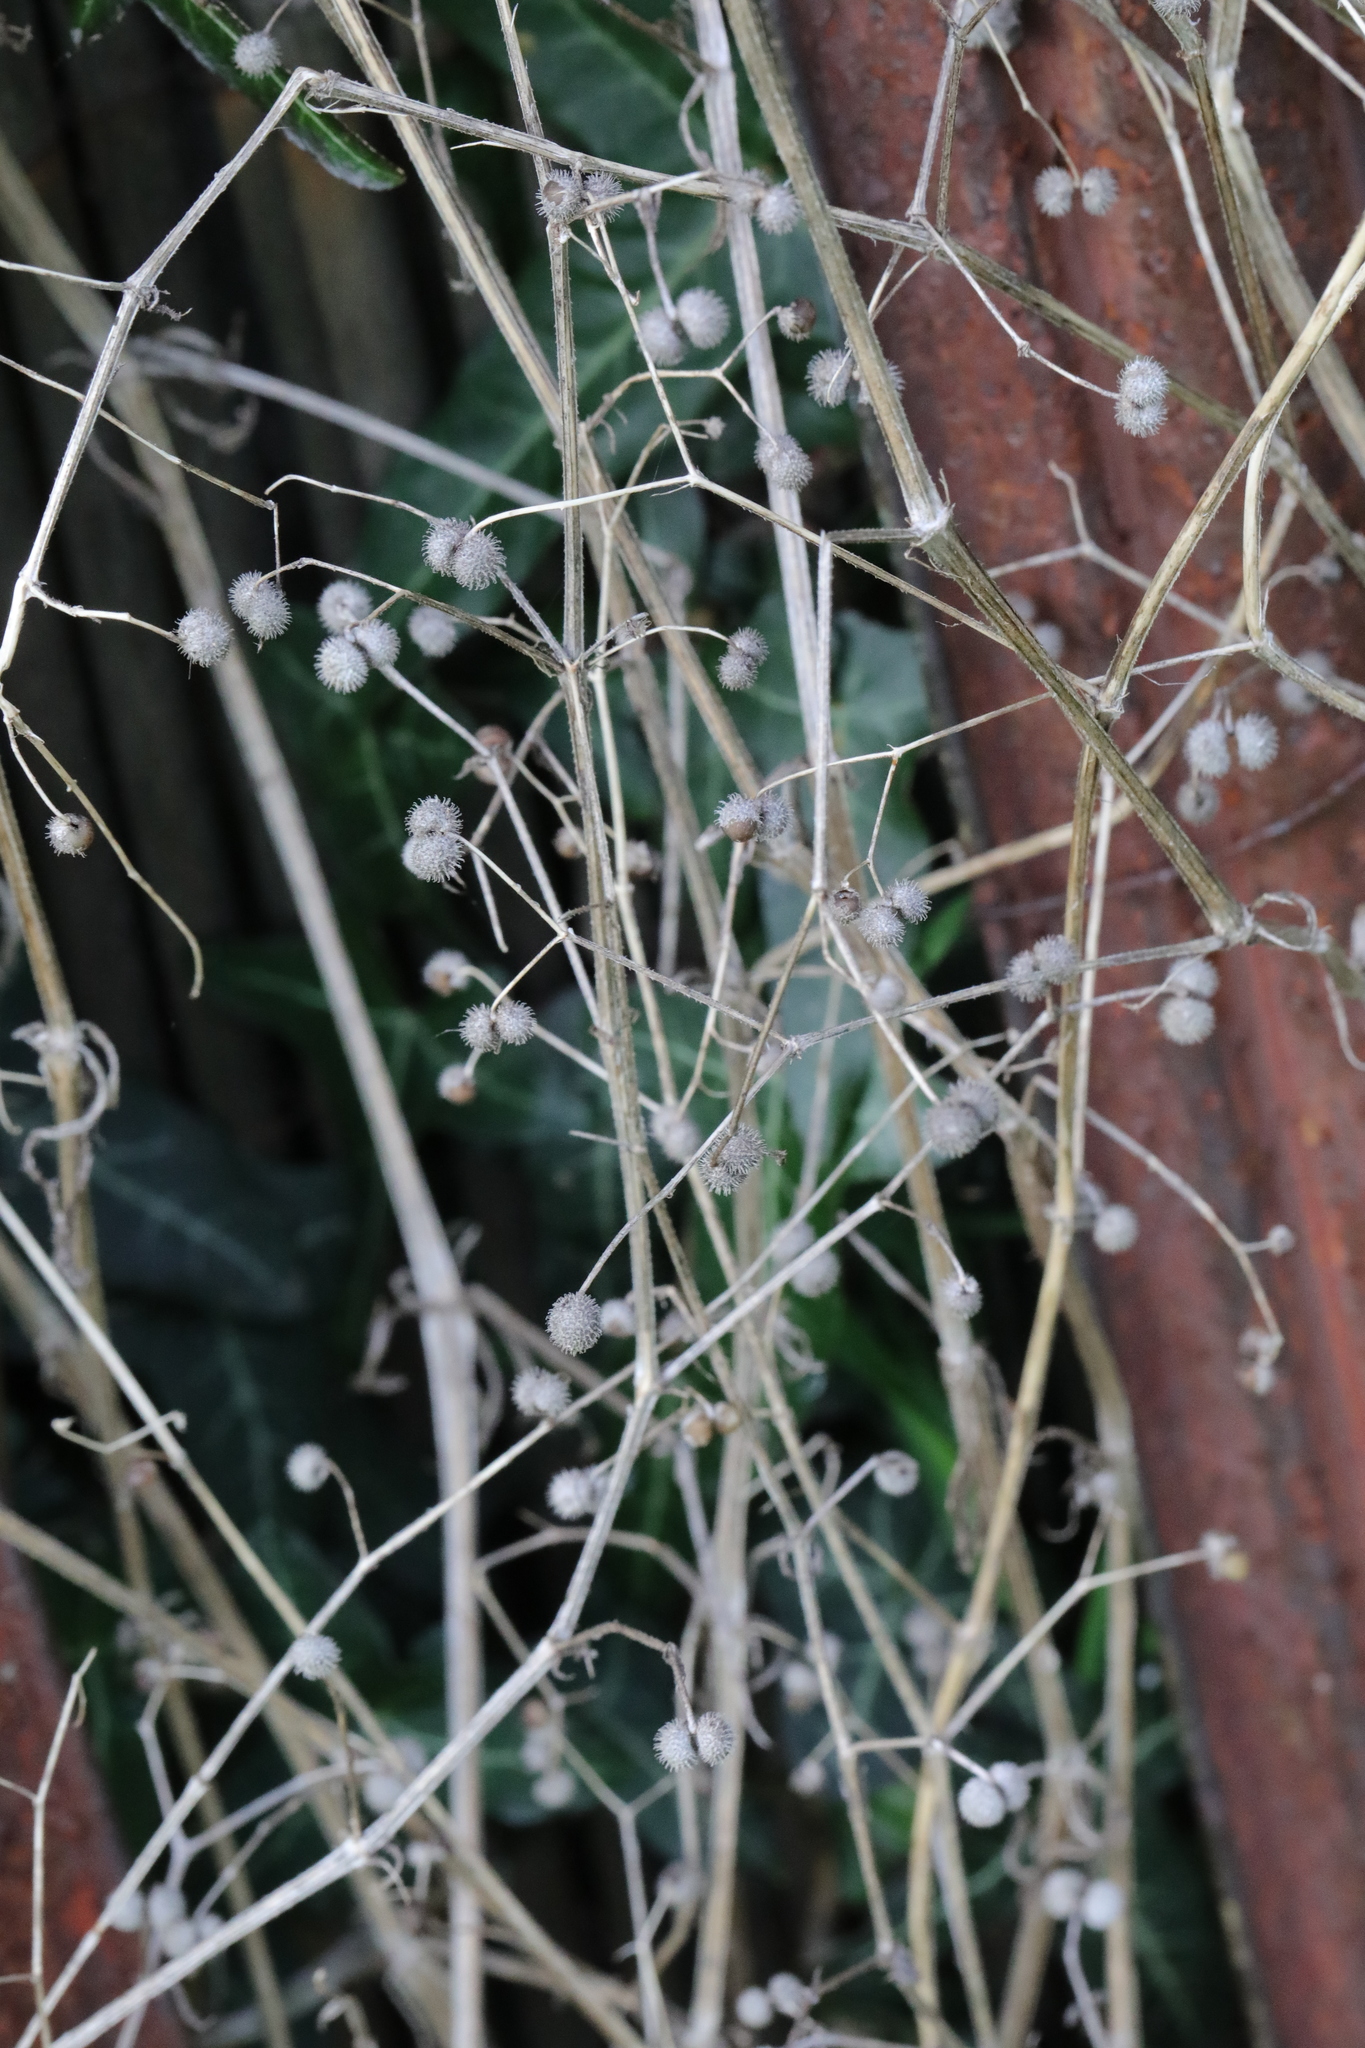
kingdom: Plantae
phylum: Tracheophyta
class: Magnoliopsida
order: Gentianales
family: Rubiaceae
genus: Galium
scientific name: Galium aparine
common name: Cleavers
